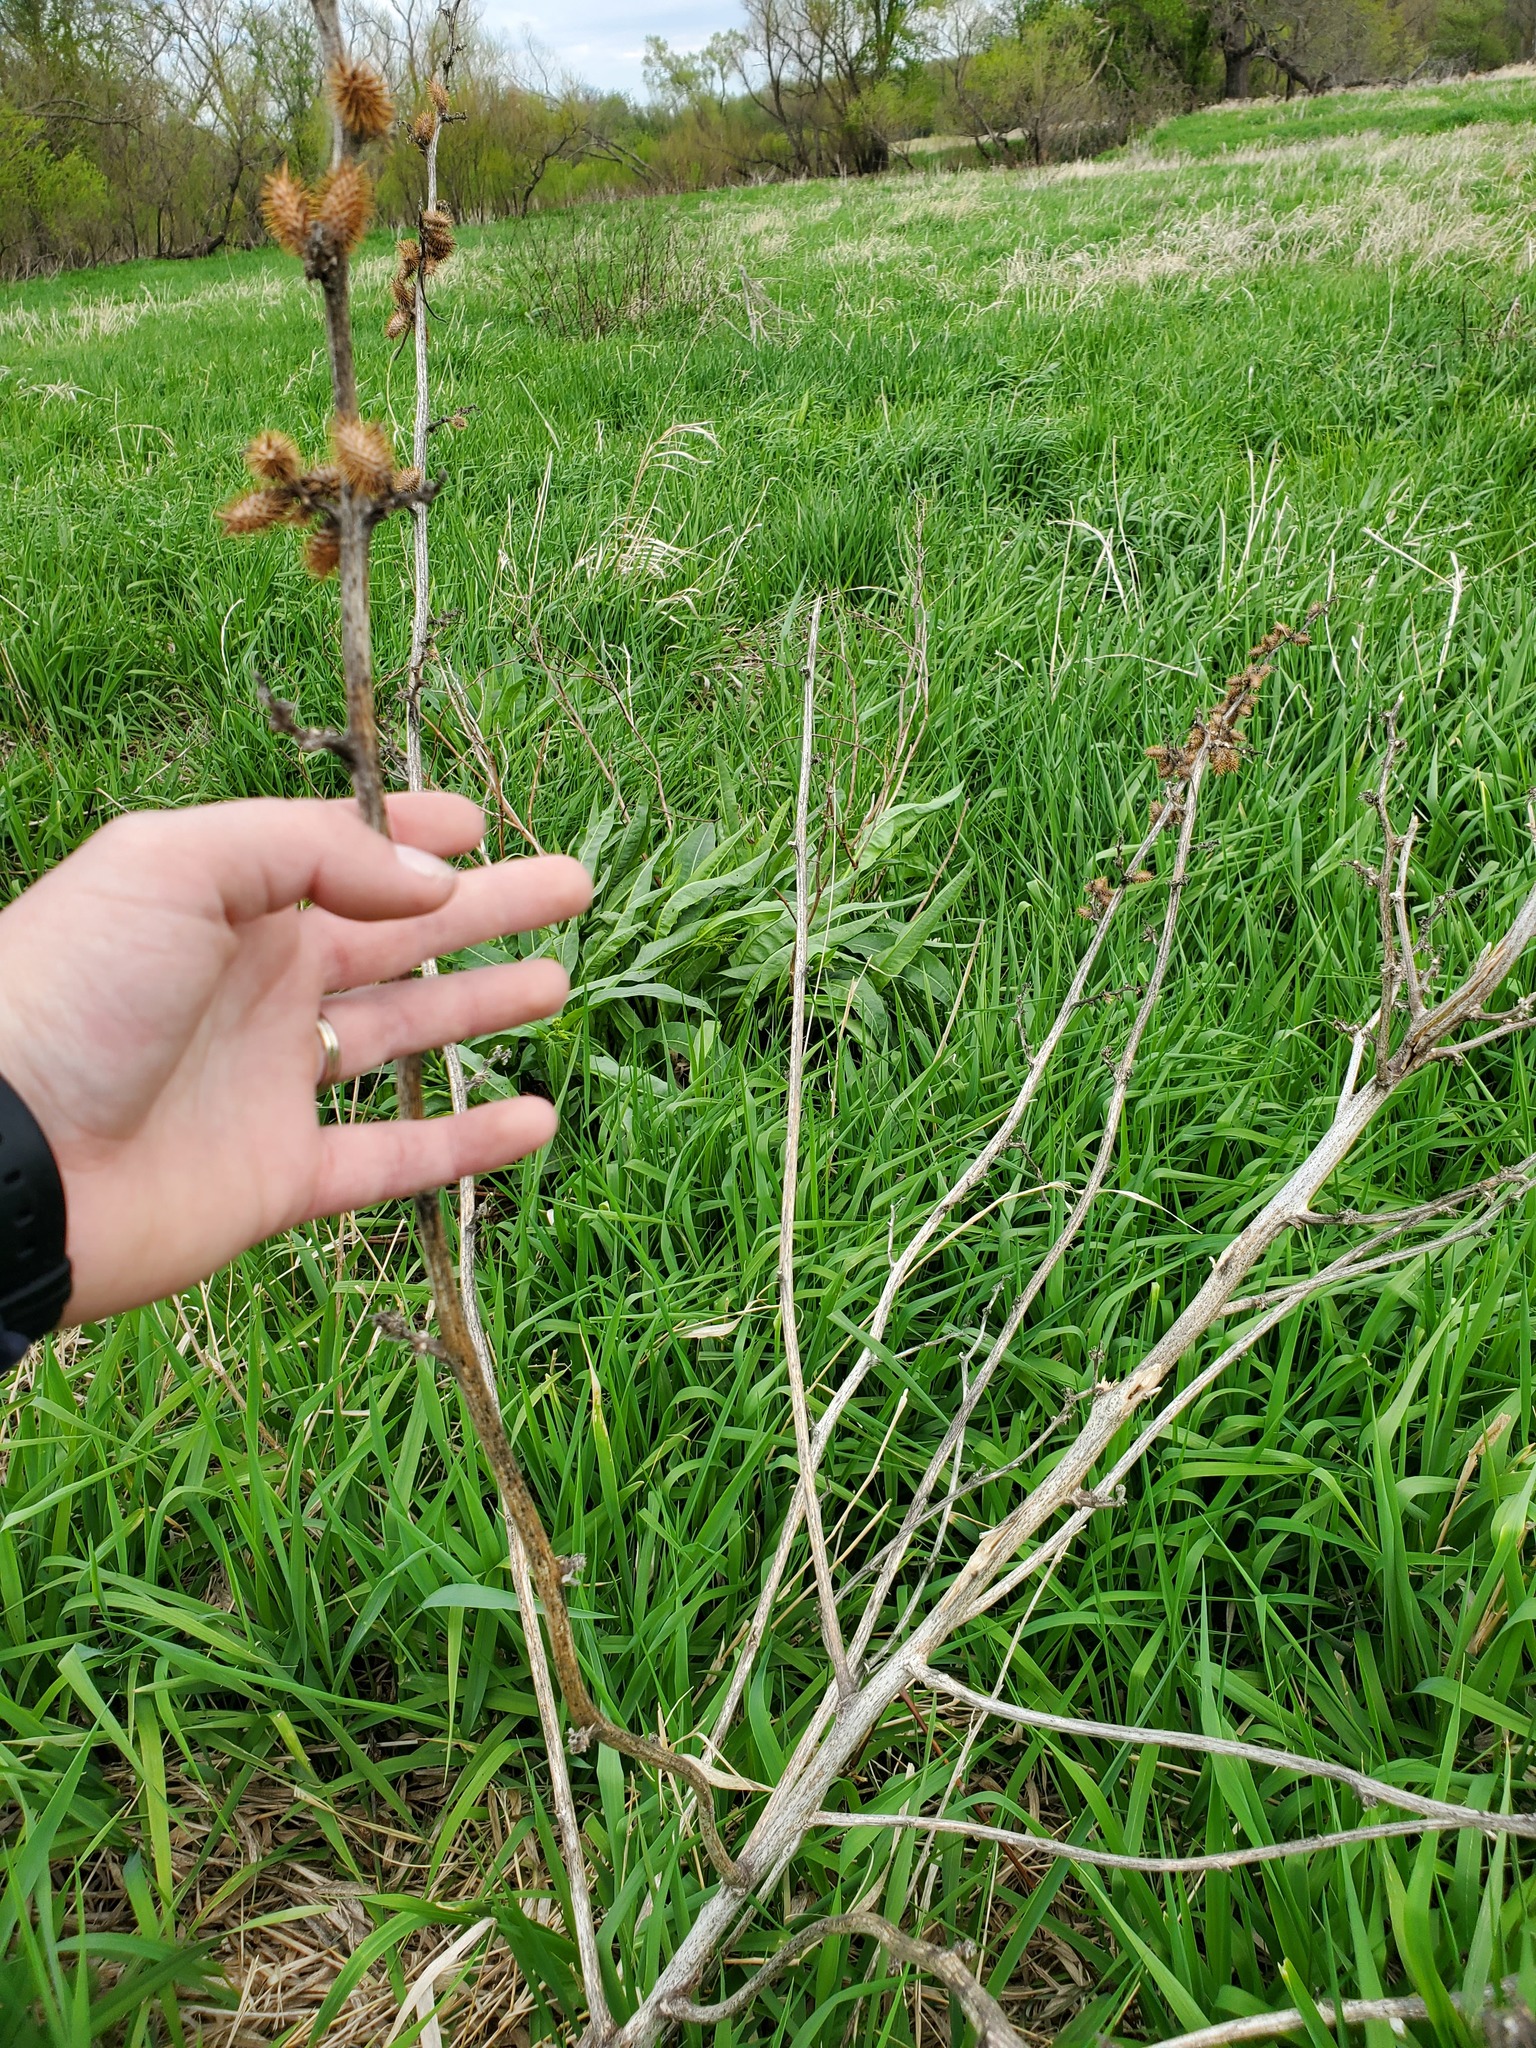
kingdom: Plantae
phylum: Tracheophyta
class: Magnoliopsida
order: Asterales
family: Asteraceae
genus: Xanthium
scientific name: Xanthium strumarium
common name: Rough cocklebur
